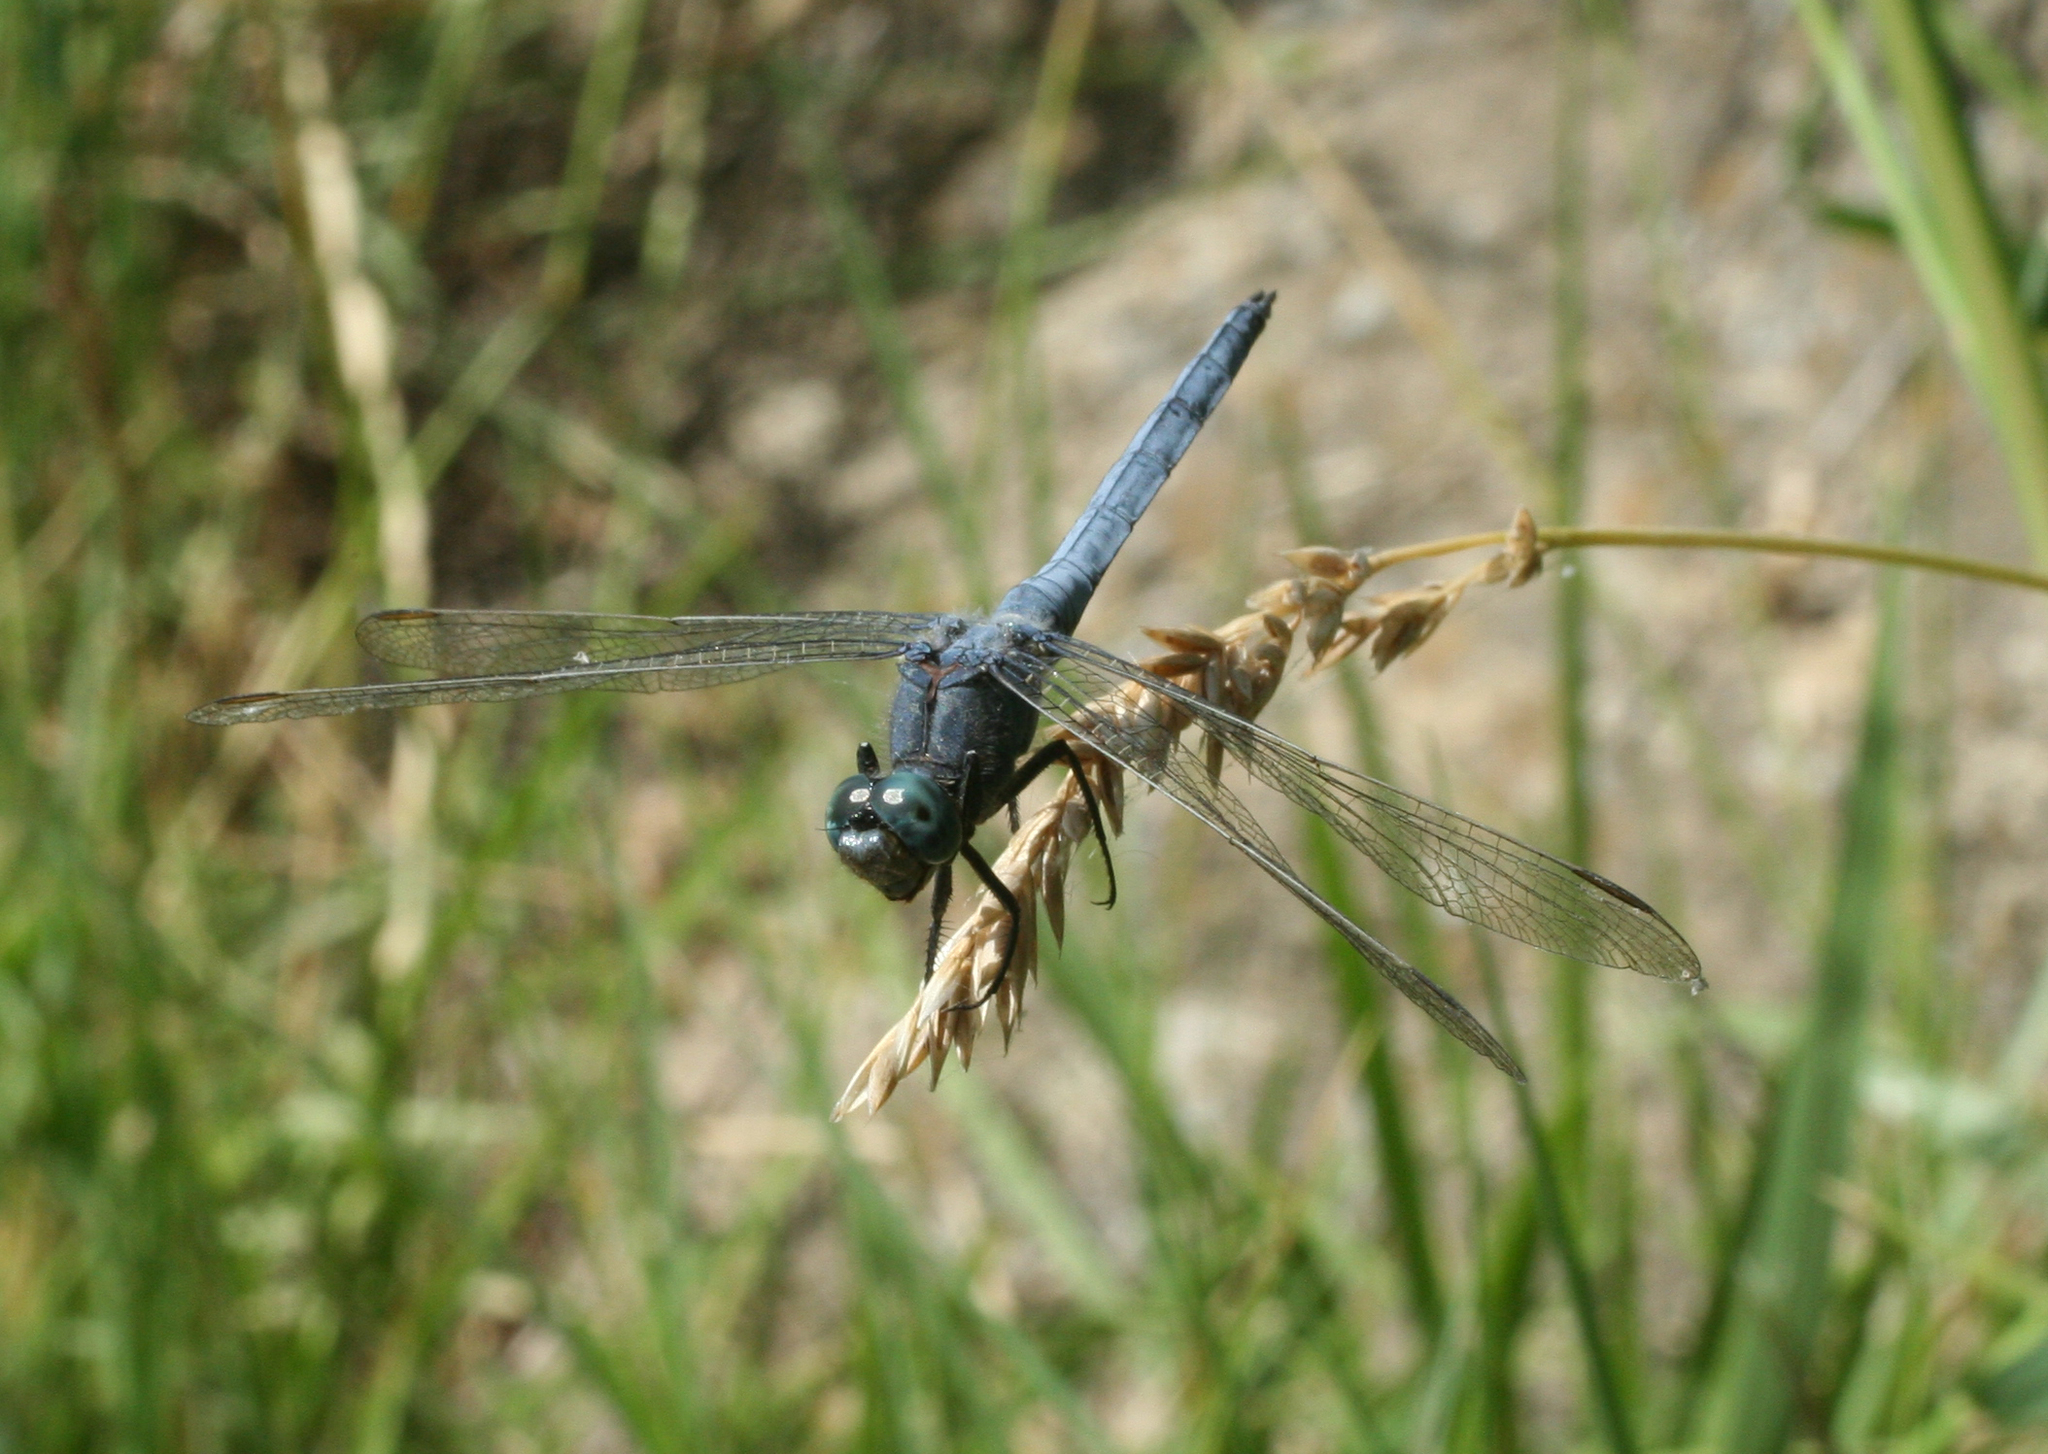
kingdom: Animalia
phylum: Arthropoda
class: Insecta
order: Odonata
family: Libellulidae
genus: Orthetrum
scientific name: Orthetrum coerulescens
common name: Keeled skimmer
